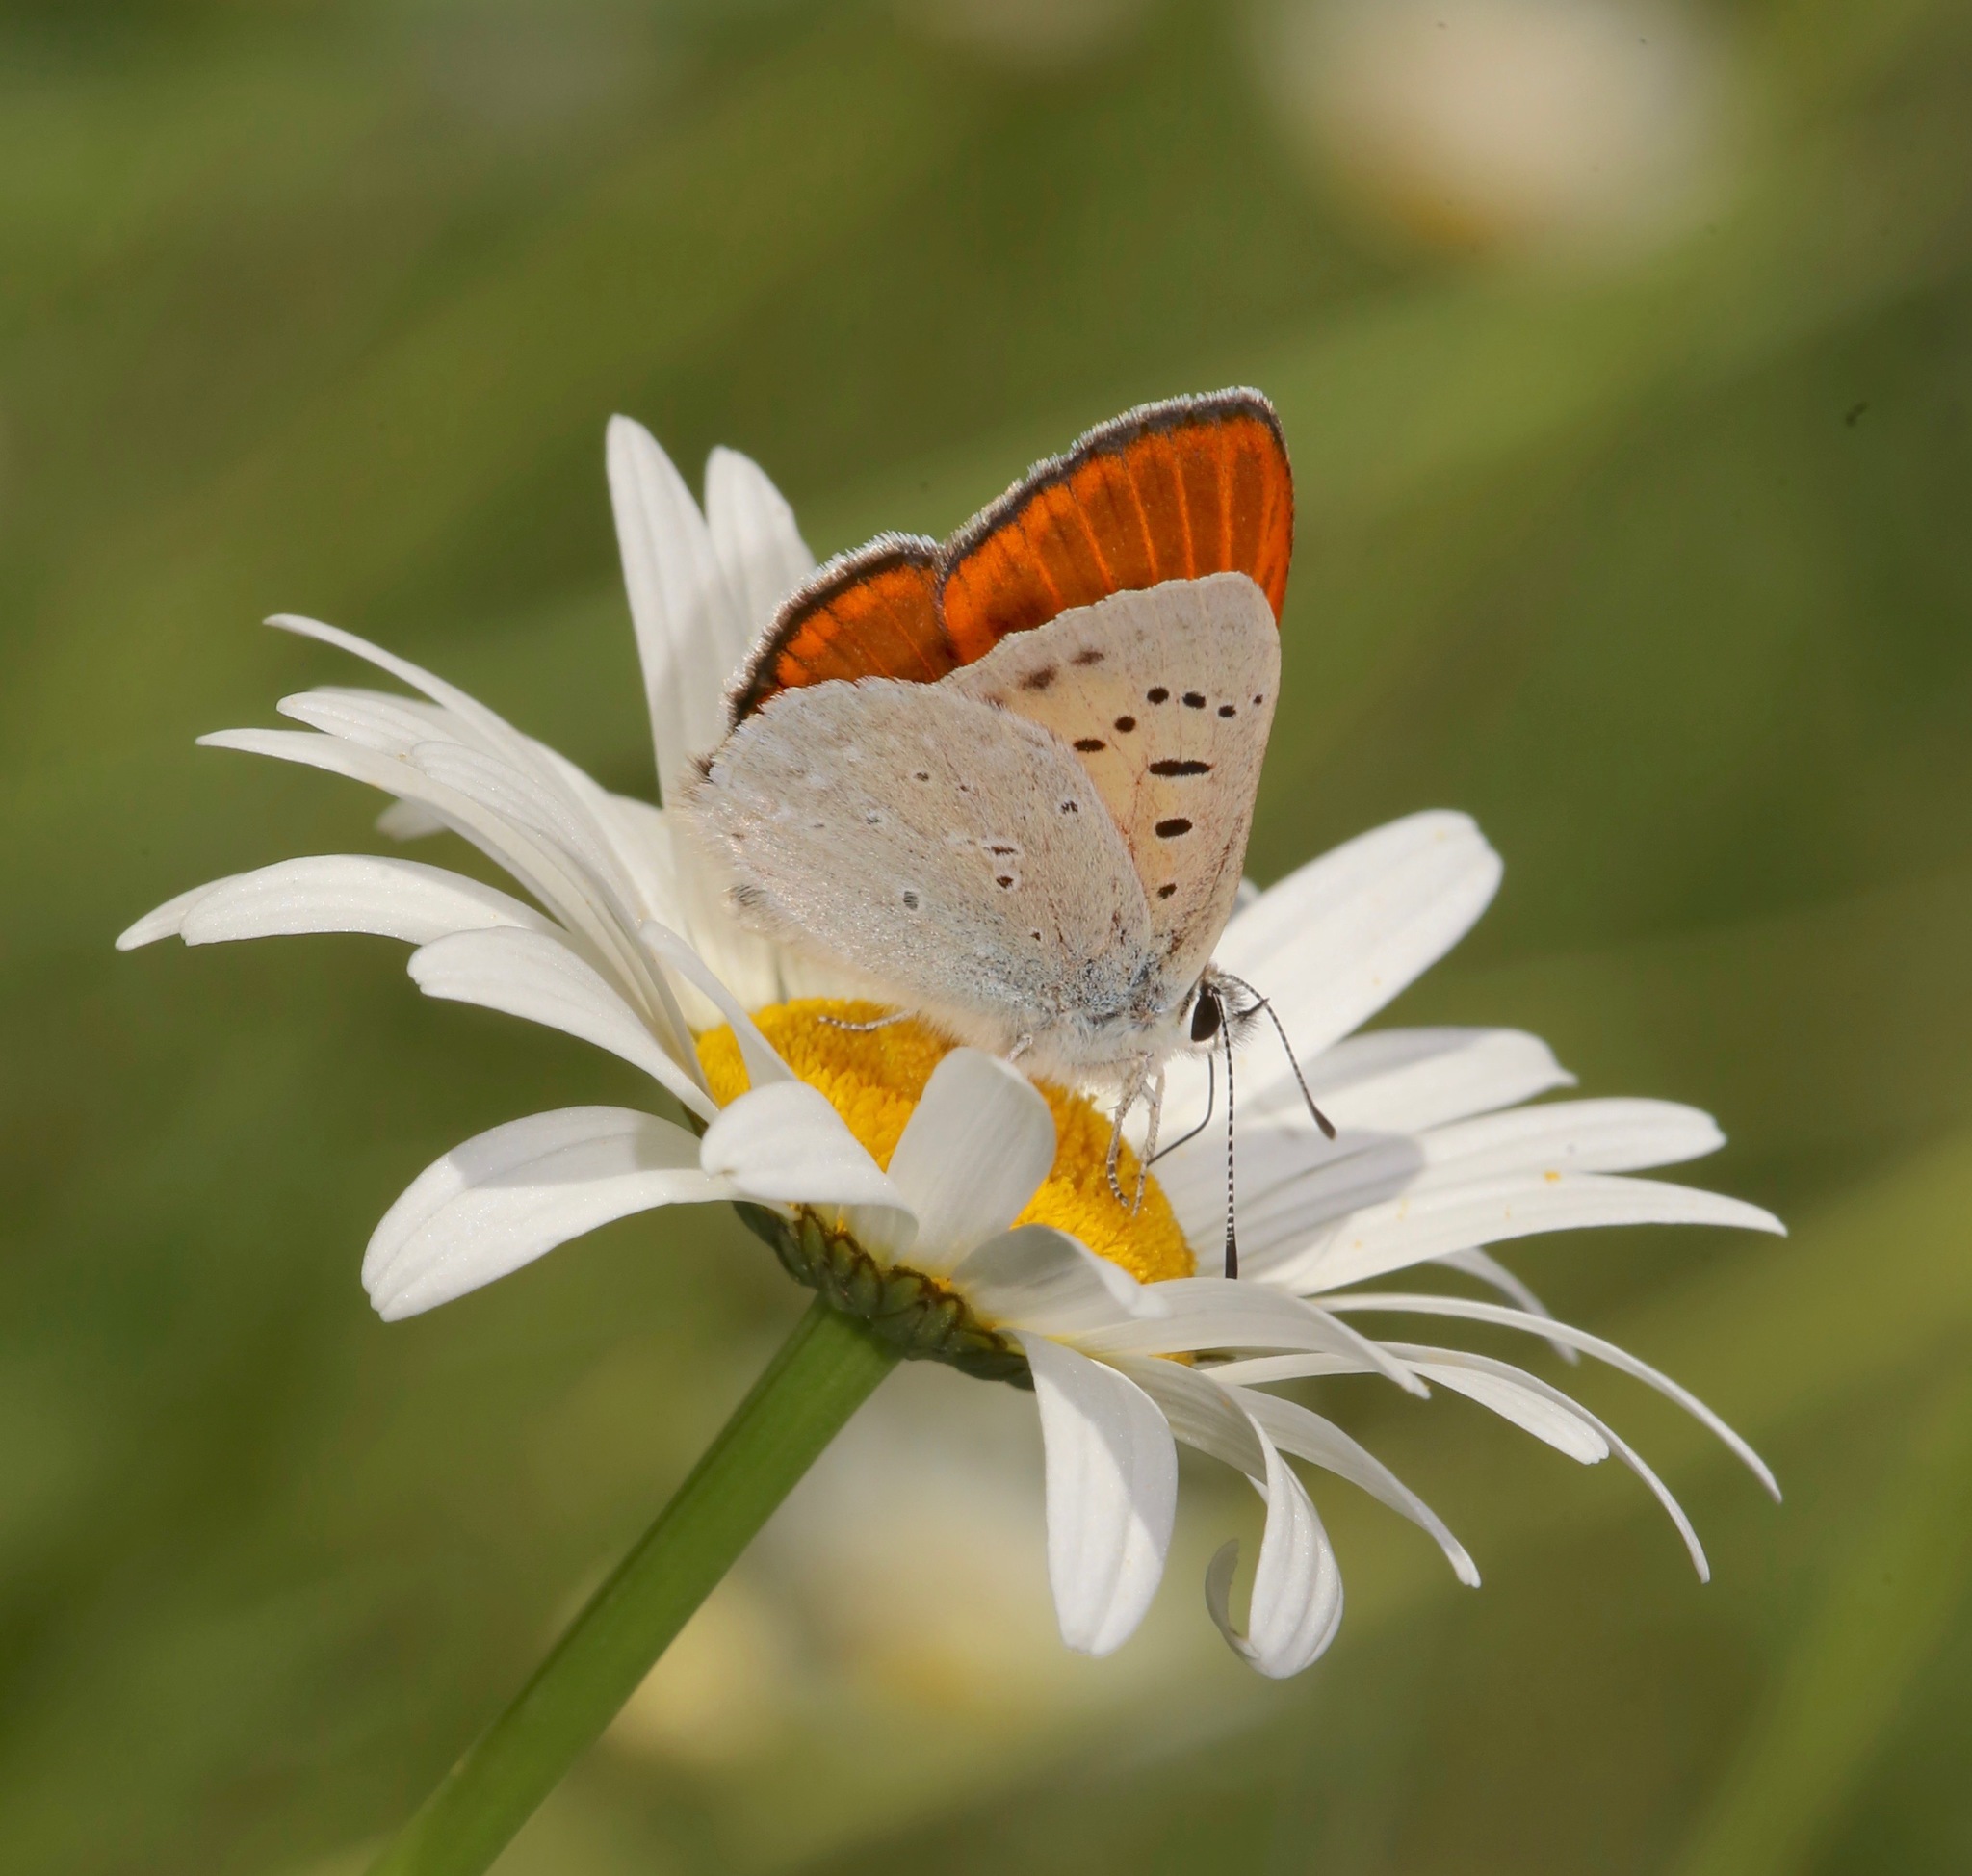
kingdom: Animalia
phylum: Arthropoda
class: Insecta
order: Lepidoptera
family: Lycaenidae
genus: Tharsalea
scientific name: Tharsalea rubidus
